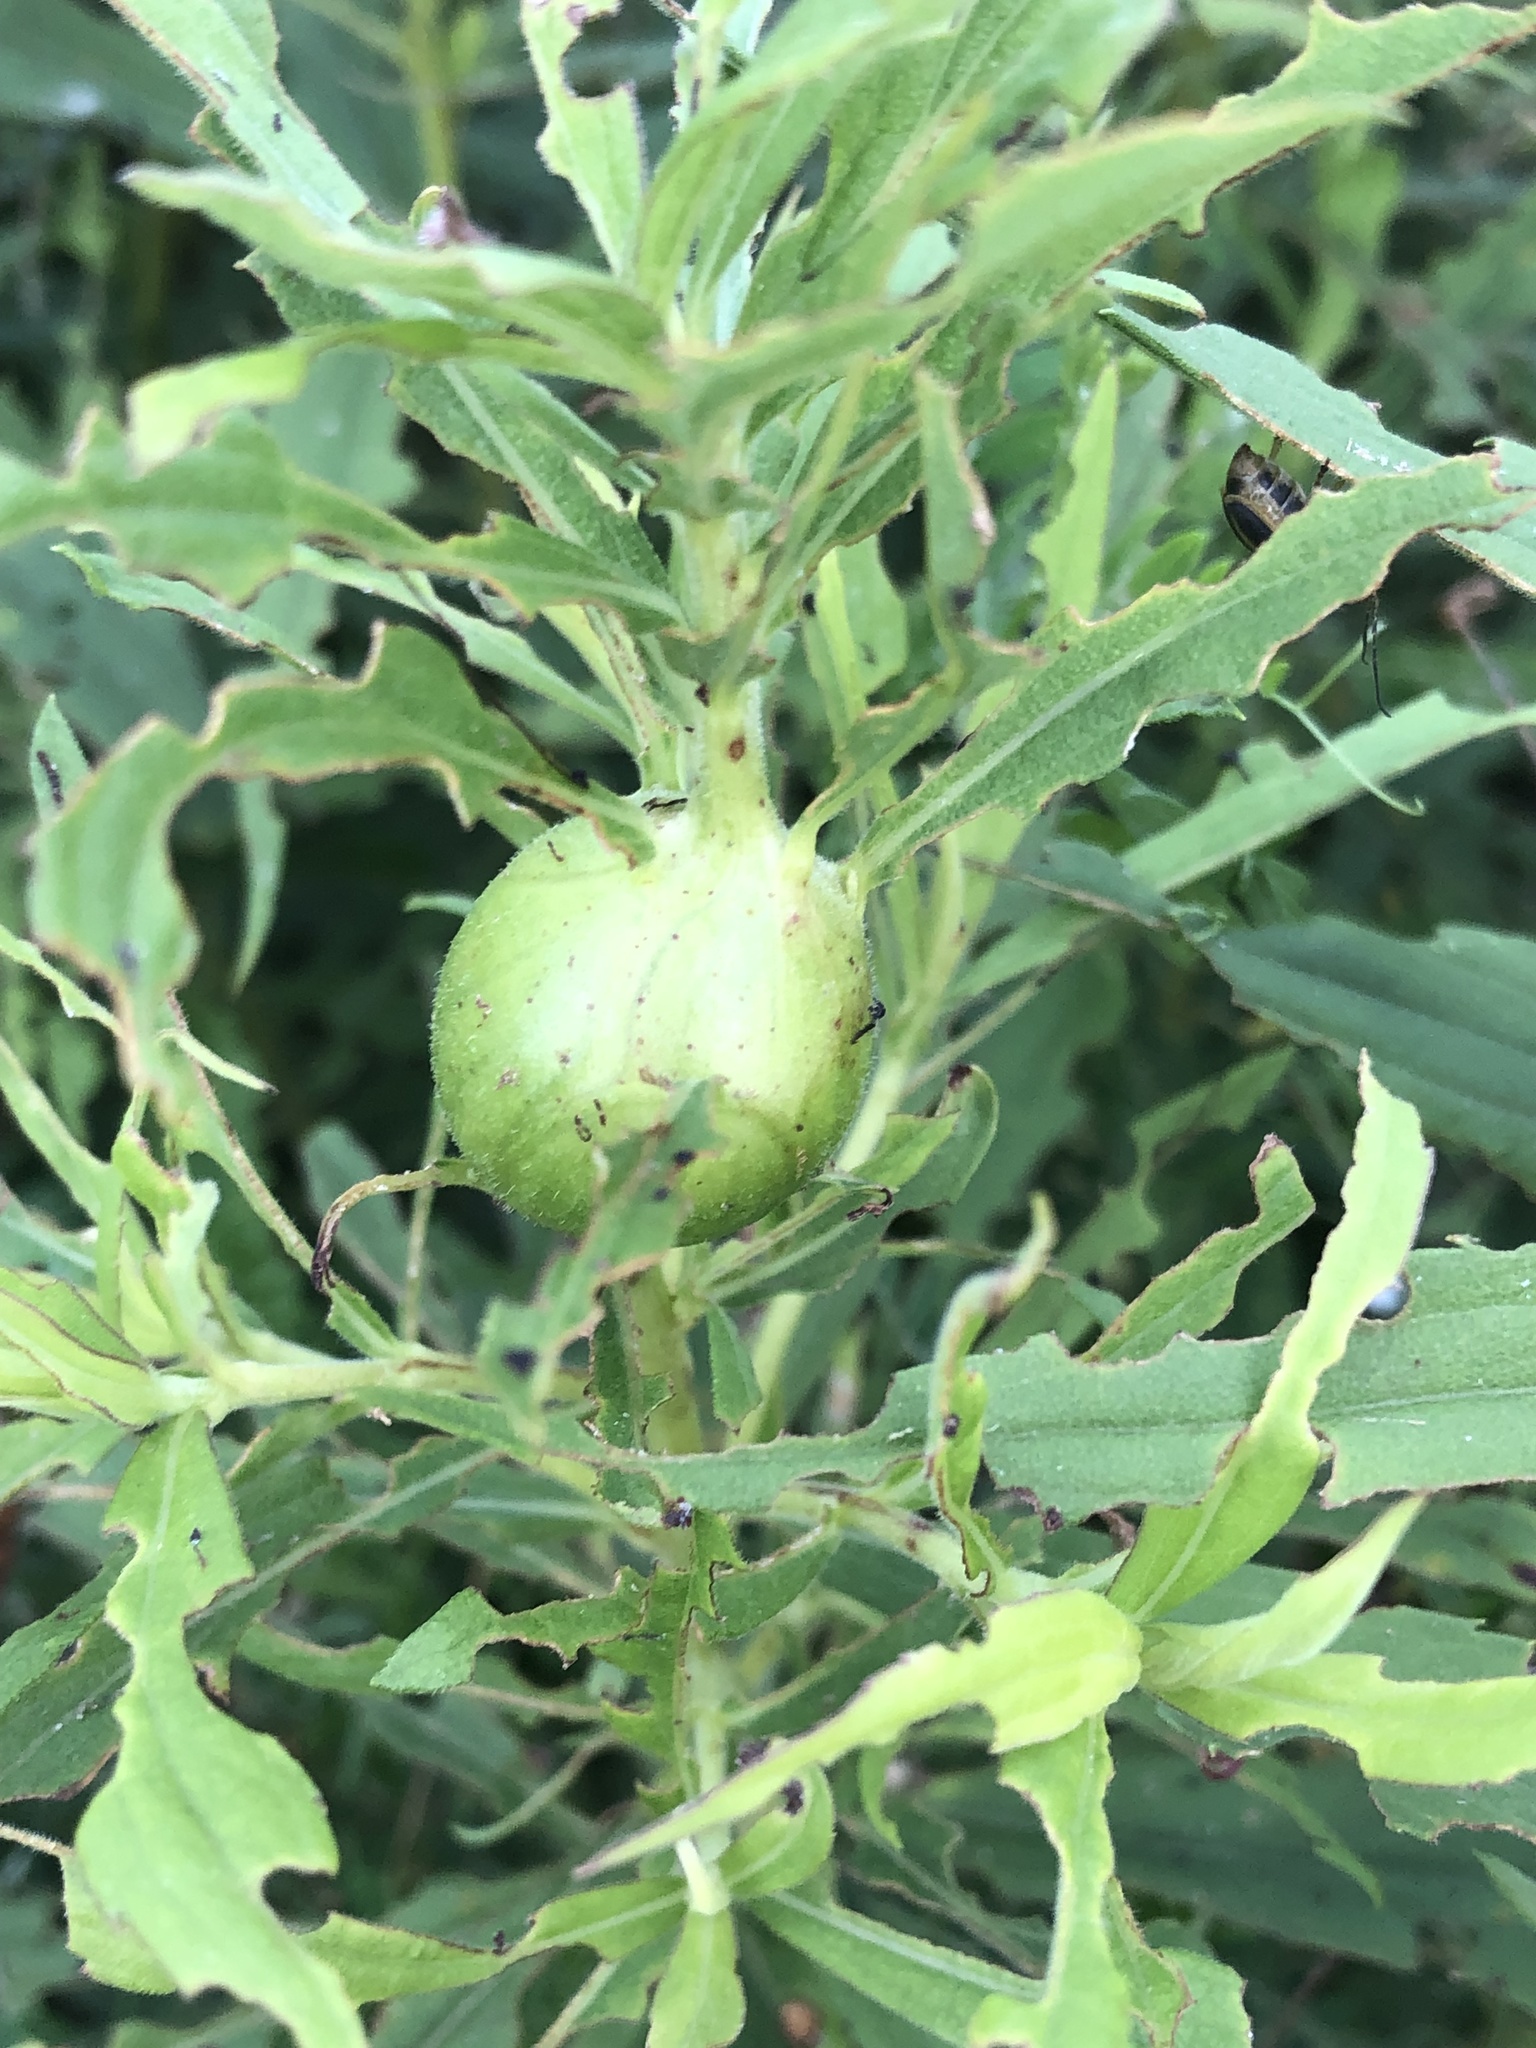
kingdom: Animalia
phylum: Arthropoda
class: Insecta
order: Diptera
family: Tephritidae
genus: Eurosta
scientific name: Eurosta solidaginis
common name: Goldenrod gall fly
